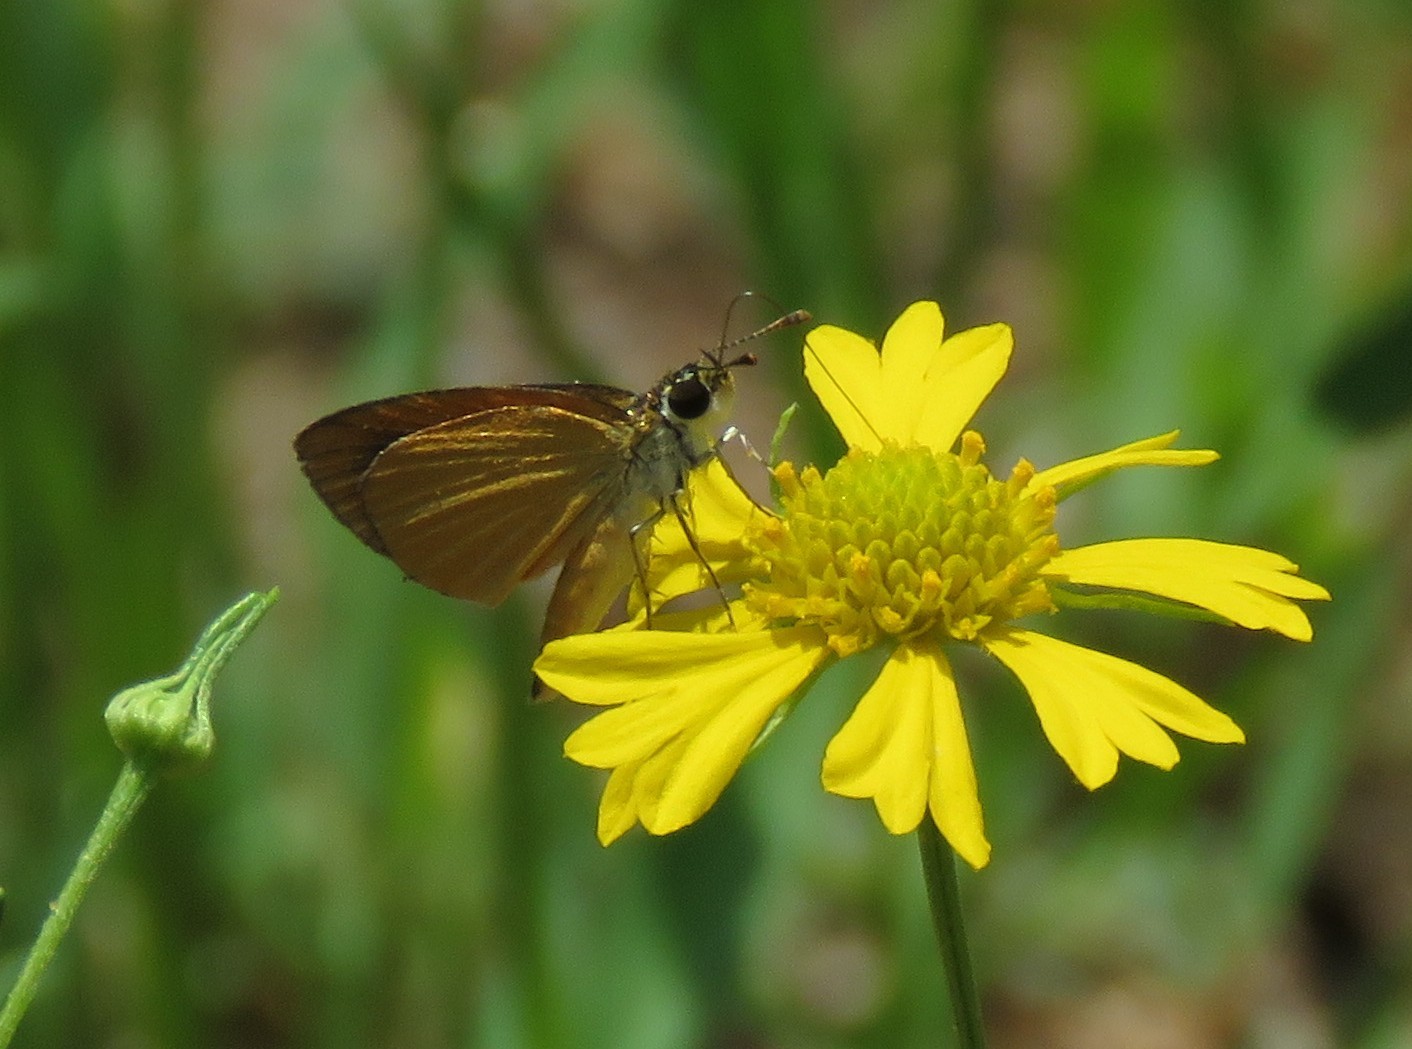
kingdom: Animalia
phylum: Arthropoda
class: Insecta
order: Lepidoptera
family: Hesperiidae
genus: Ancyloxypha
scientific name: Ancyloxypha numitor
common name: Least skipper
